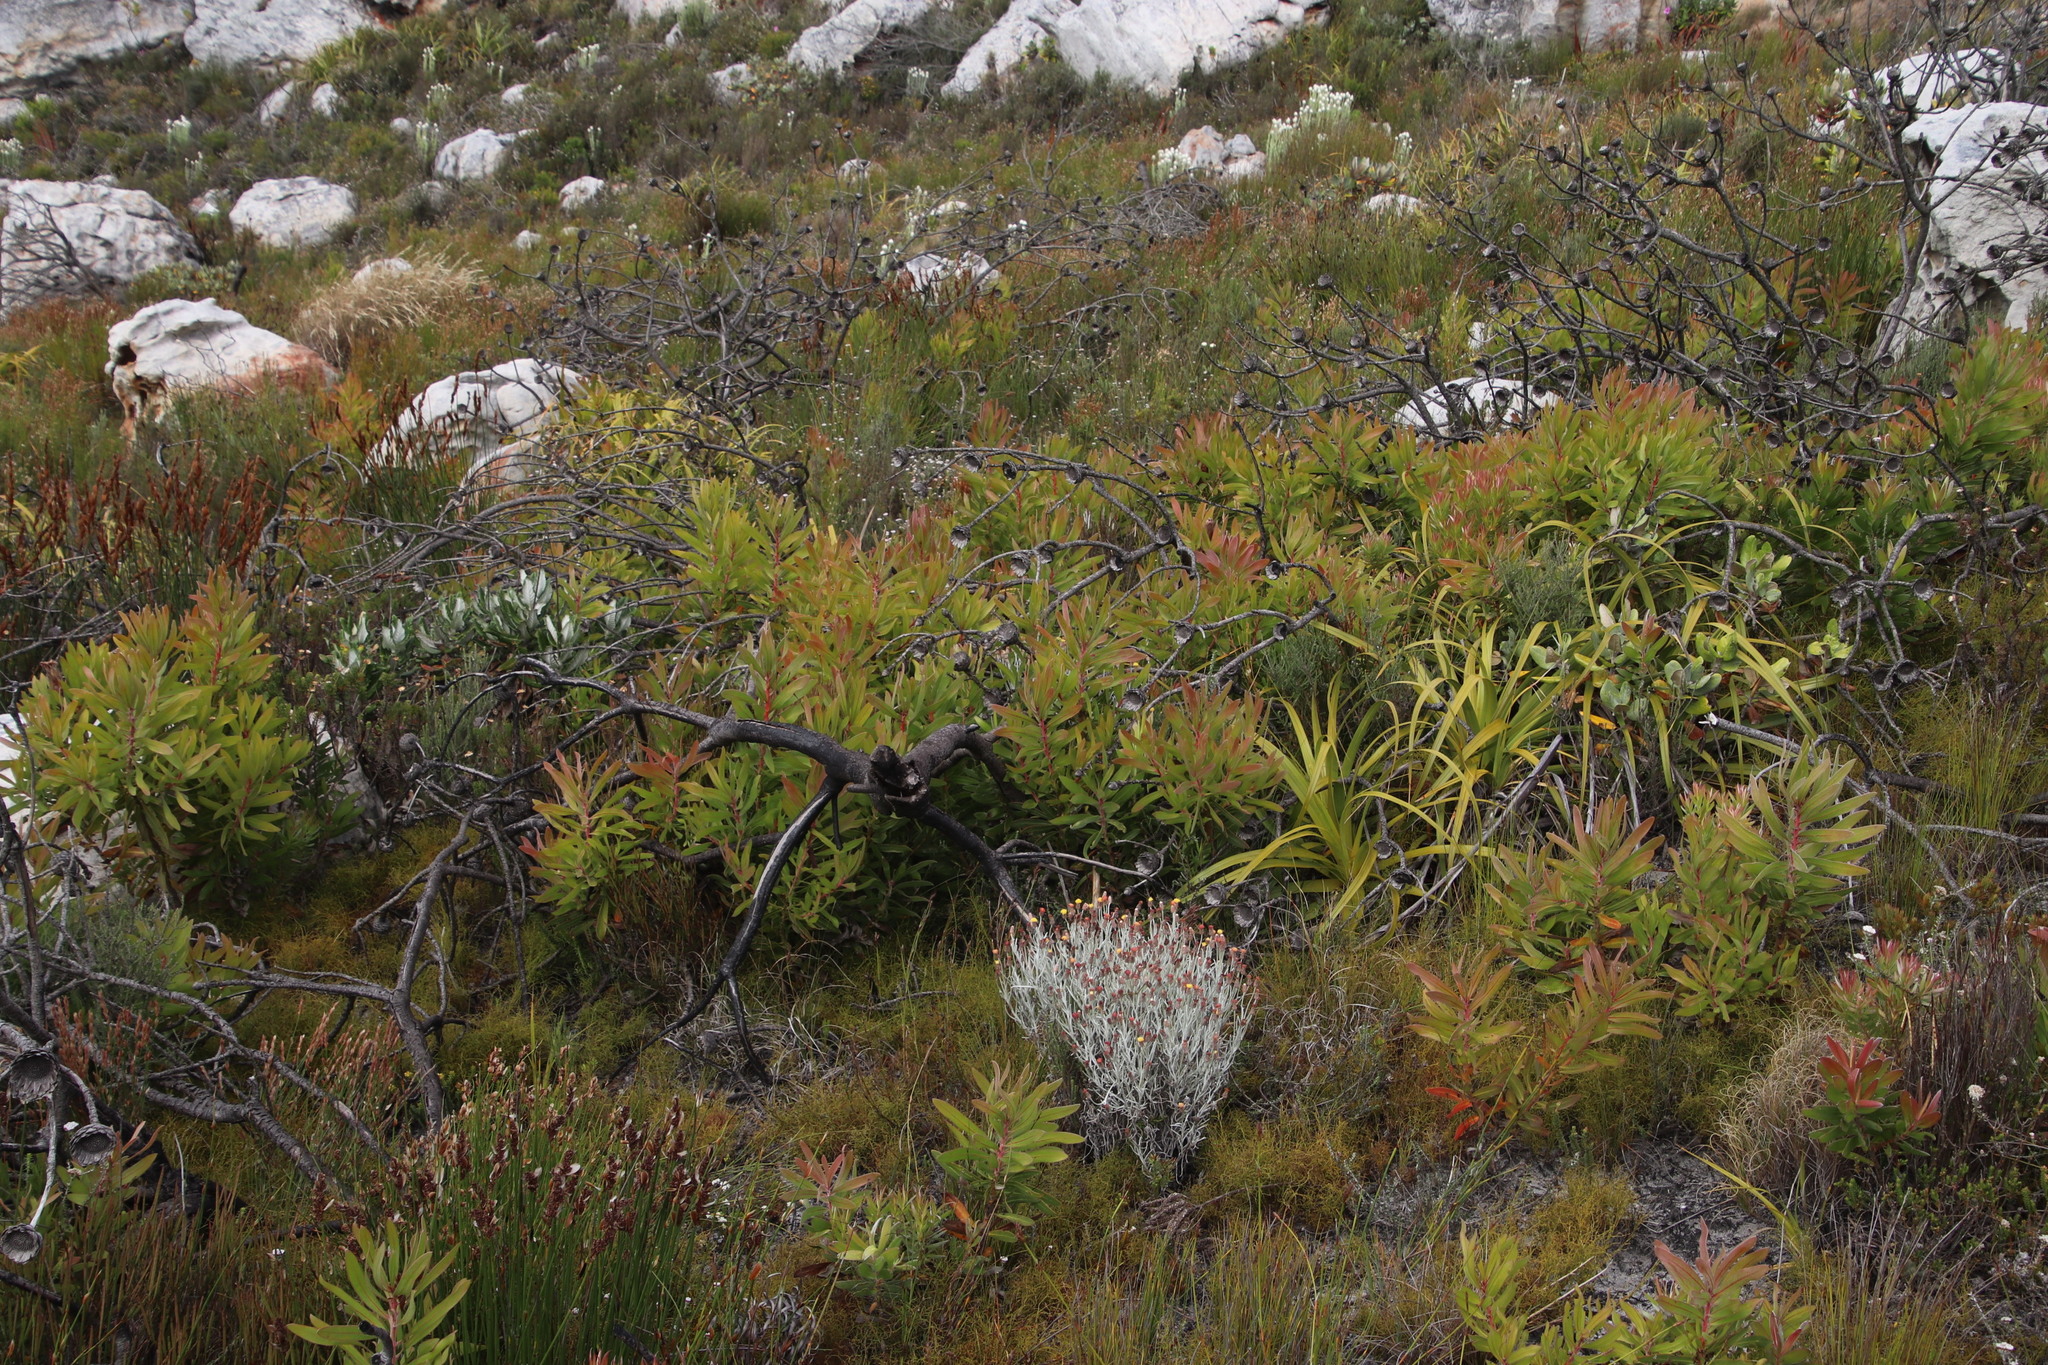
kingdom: Plantae
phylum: Tracheophyta
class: Magnoliopsida
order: Proteales
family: Proteaceae
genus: Protea
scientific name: Protea lepidocarpodendron
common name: Black-bearded protea
